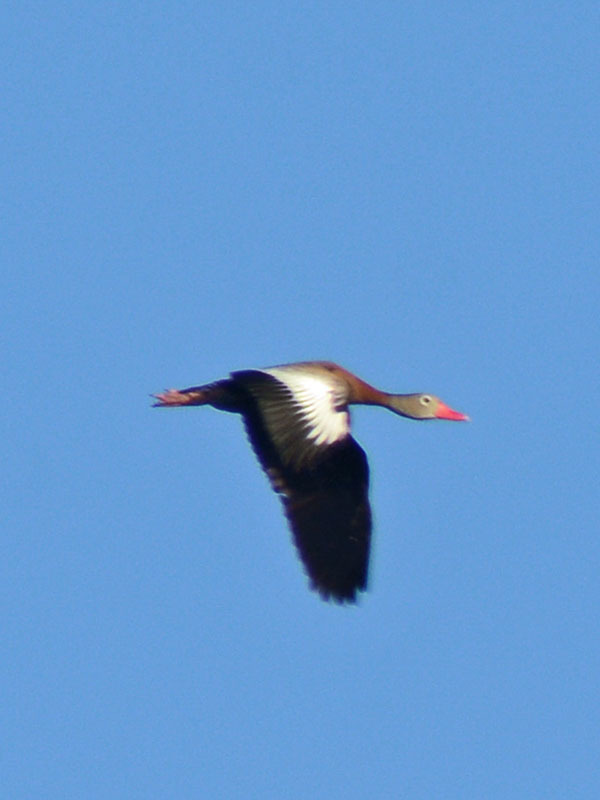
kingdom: Animalia
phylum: Chordata
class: Aves
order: Anseriformes
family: Anatidae
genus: Dendrocygna
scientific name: Dendrocygna autumnalis
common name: Black-bellied whistling duck
